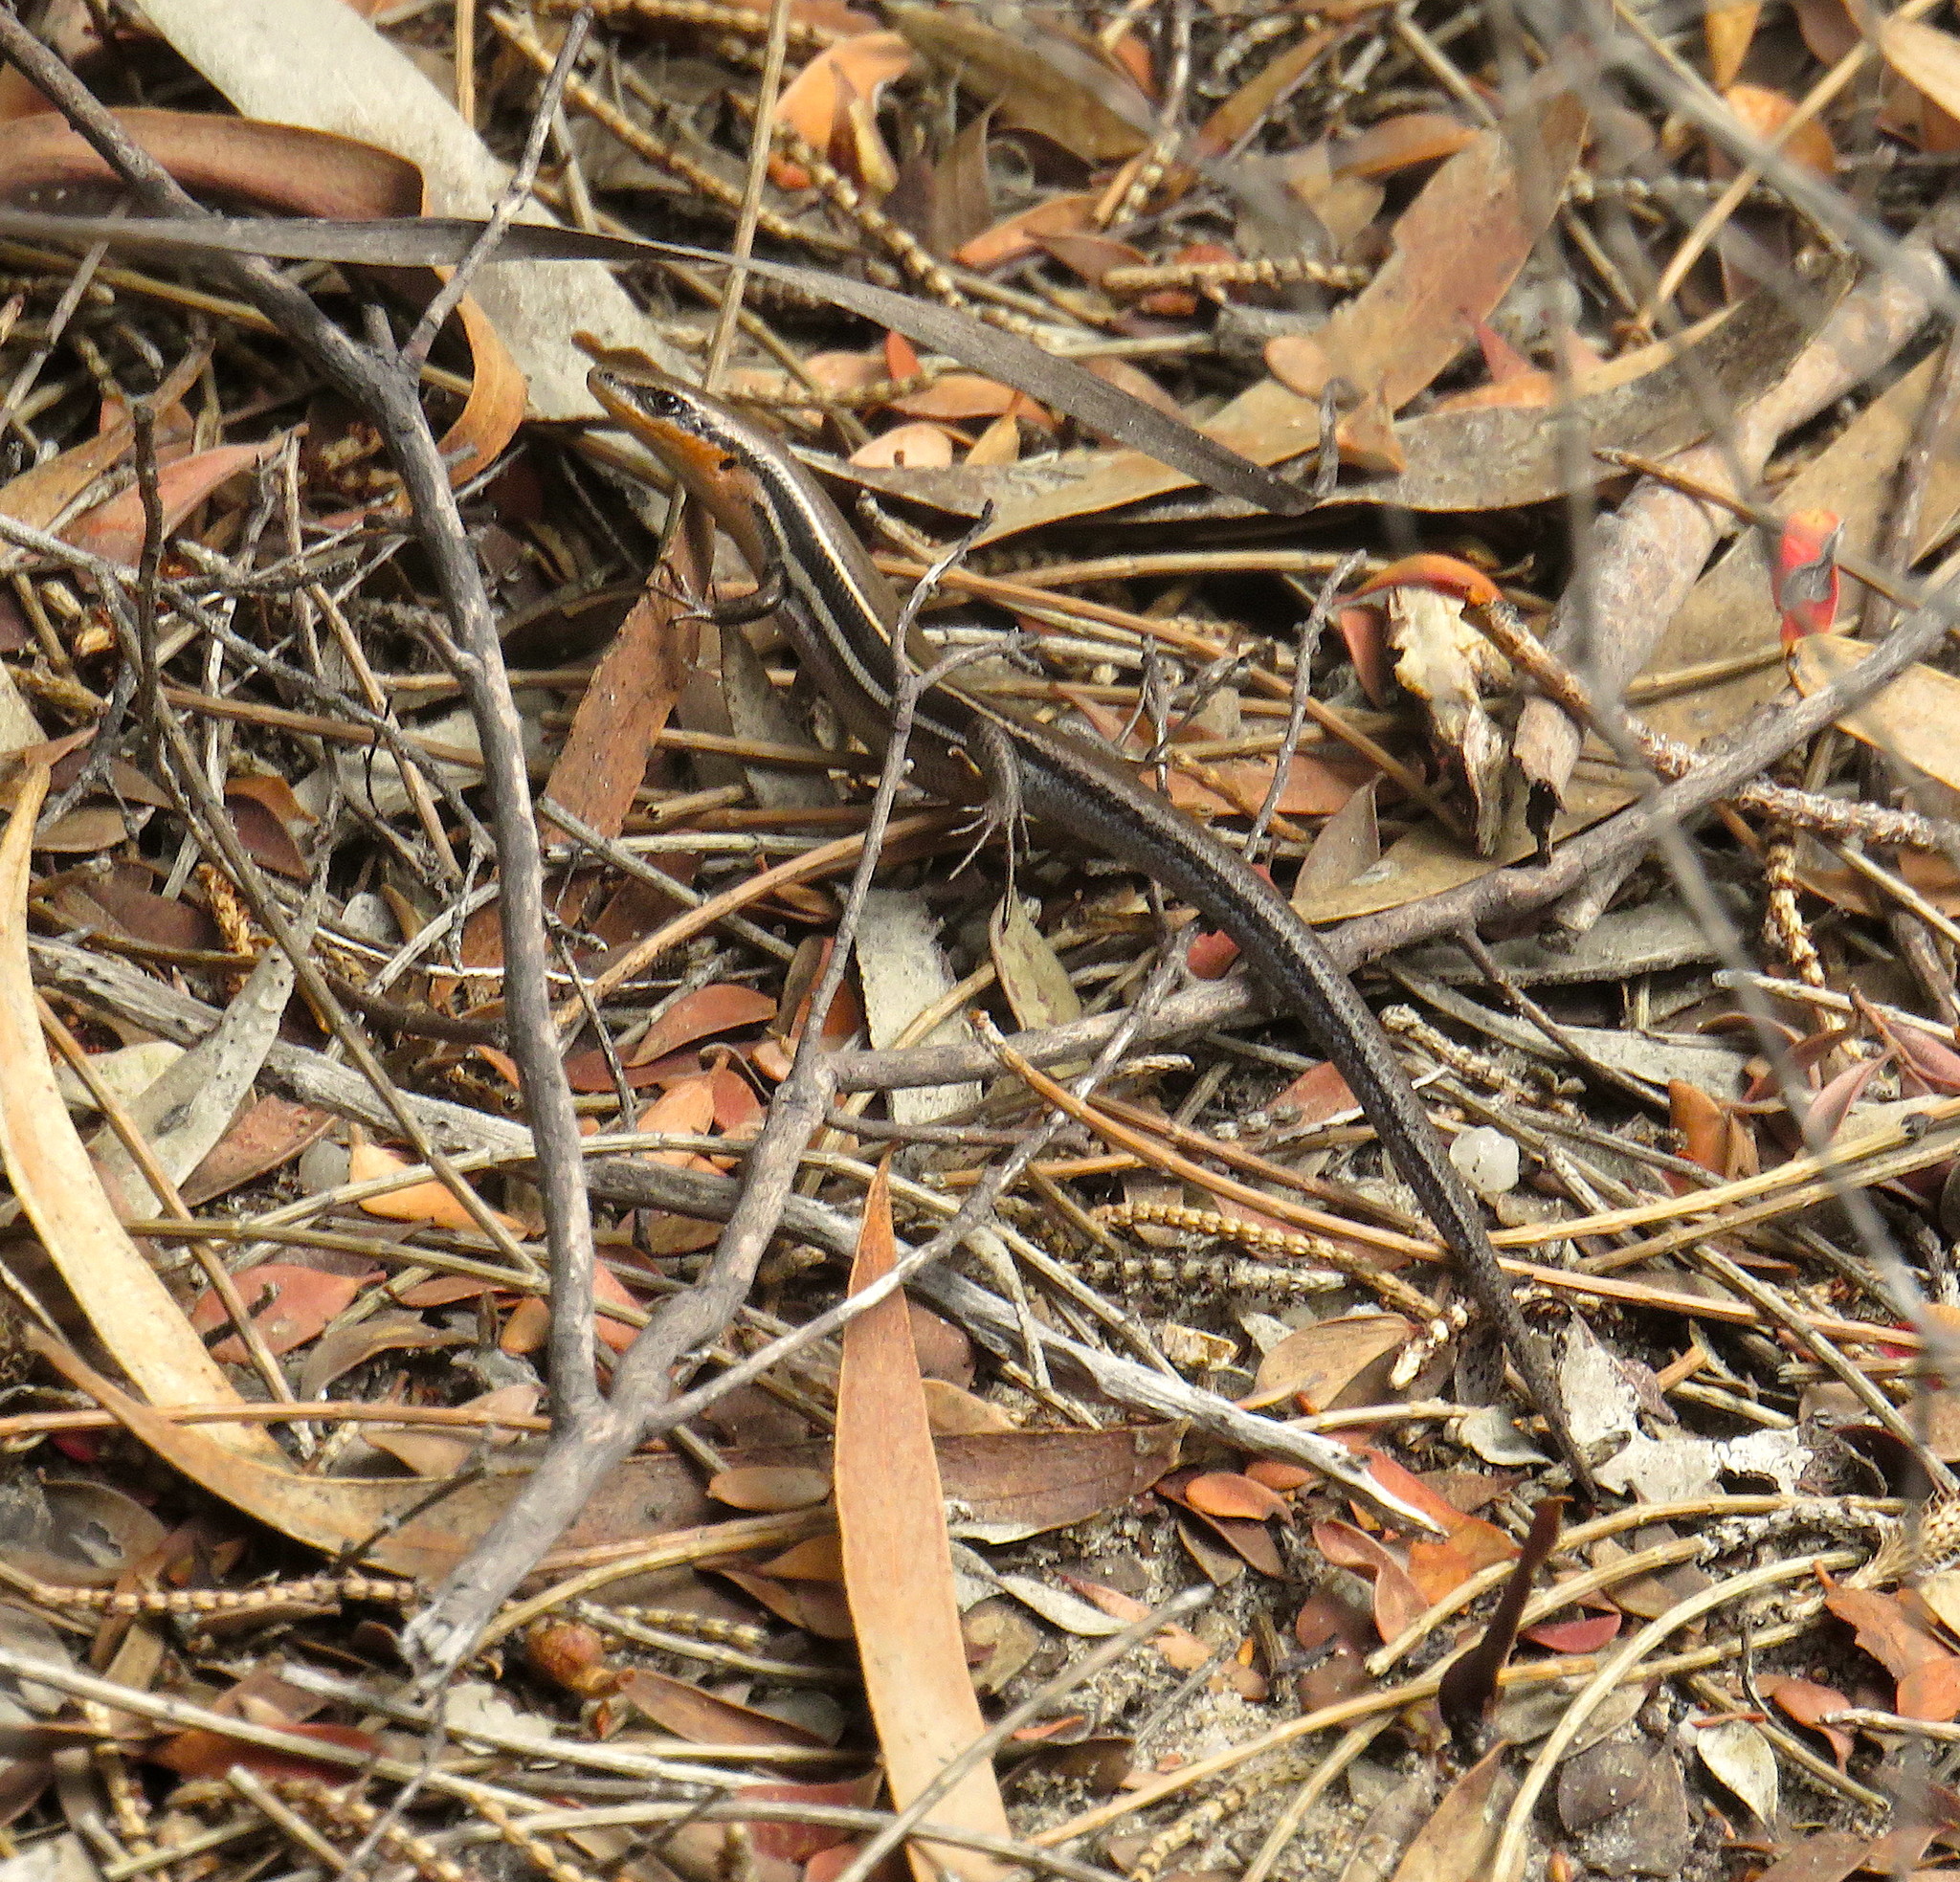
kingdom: Animalia
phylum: Chordata
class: Squamata
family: Scincidae
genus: Acritoscincus
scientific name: Acritoscincus duperreyi
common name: Bold-striped cool-skink
